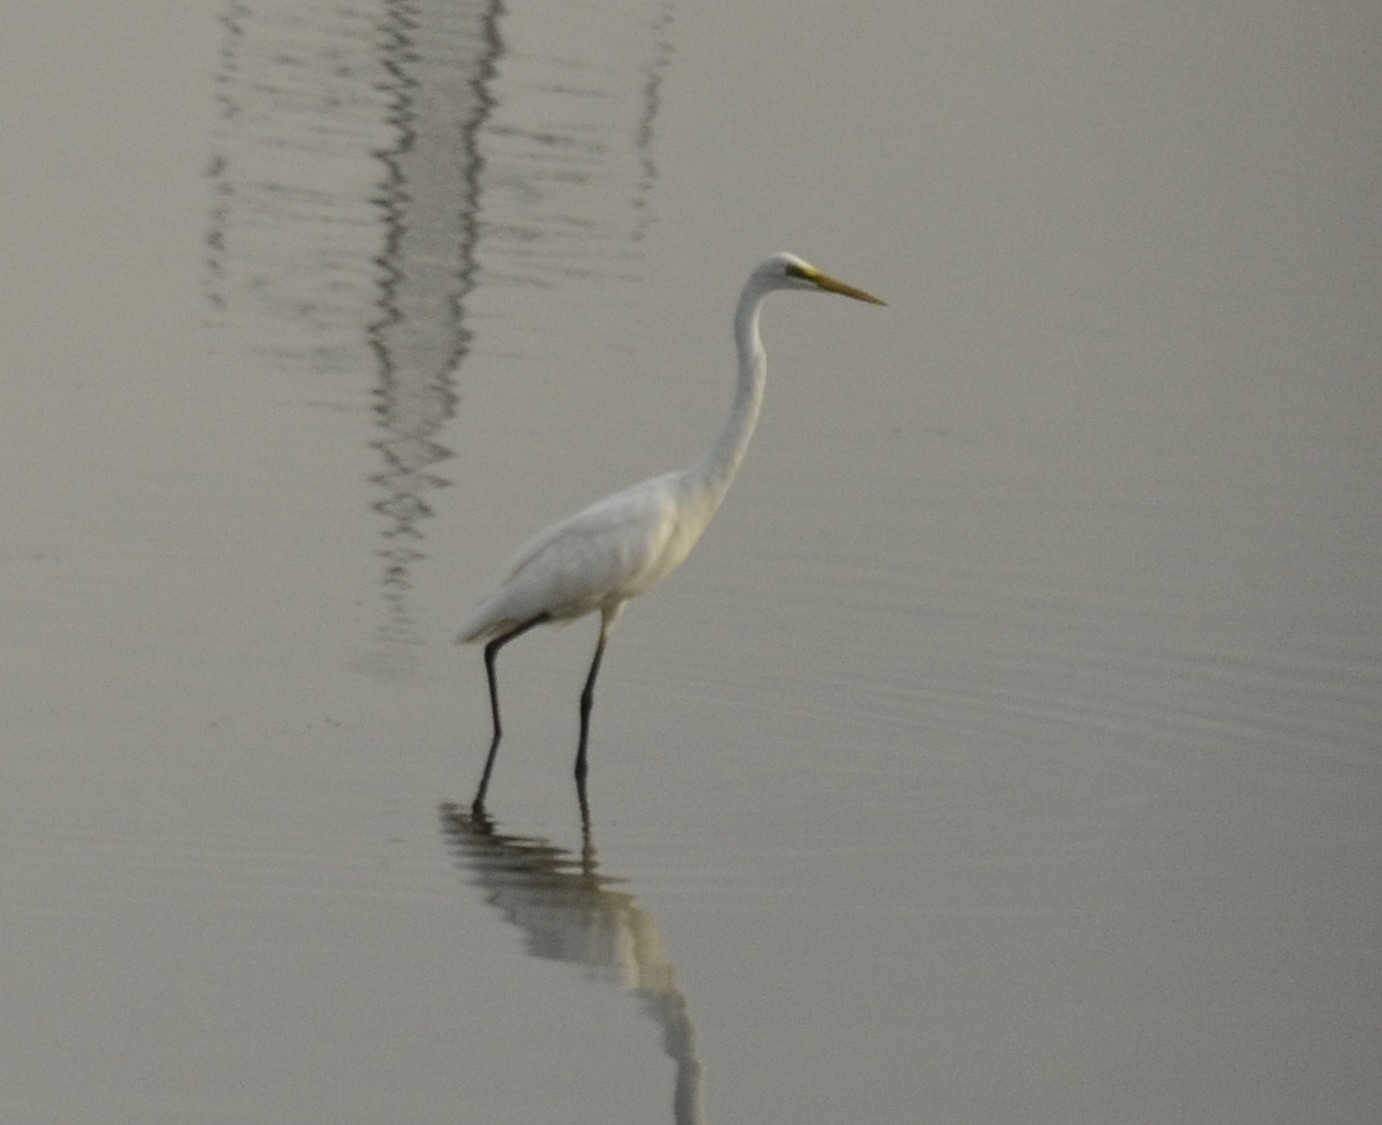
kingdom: Animalia
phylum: Chordata
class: Aves
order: Pelecaniformes
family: Ardeidae
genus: Ardea
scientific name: Ardea alba
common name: Great egret
